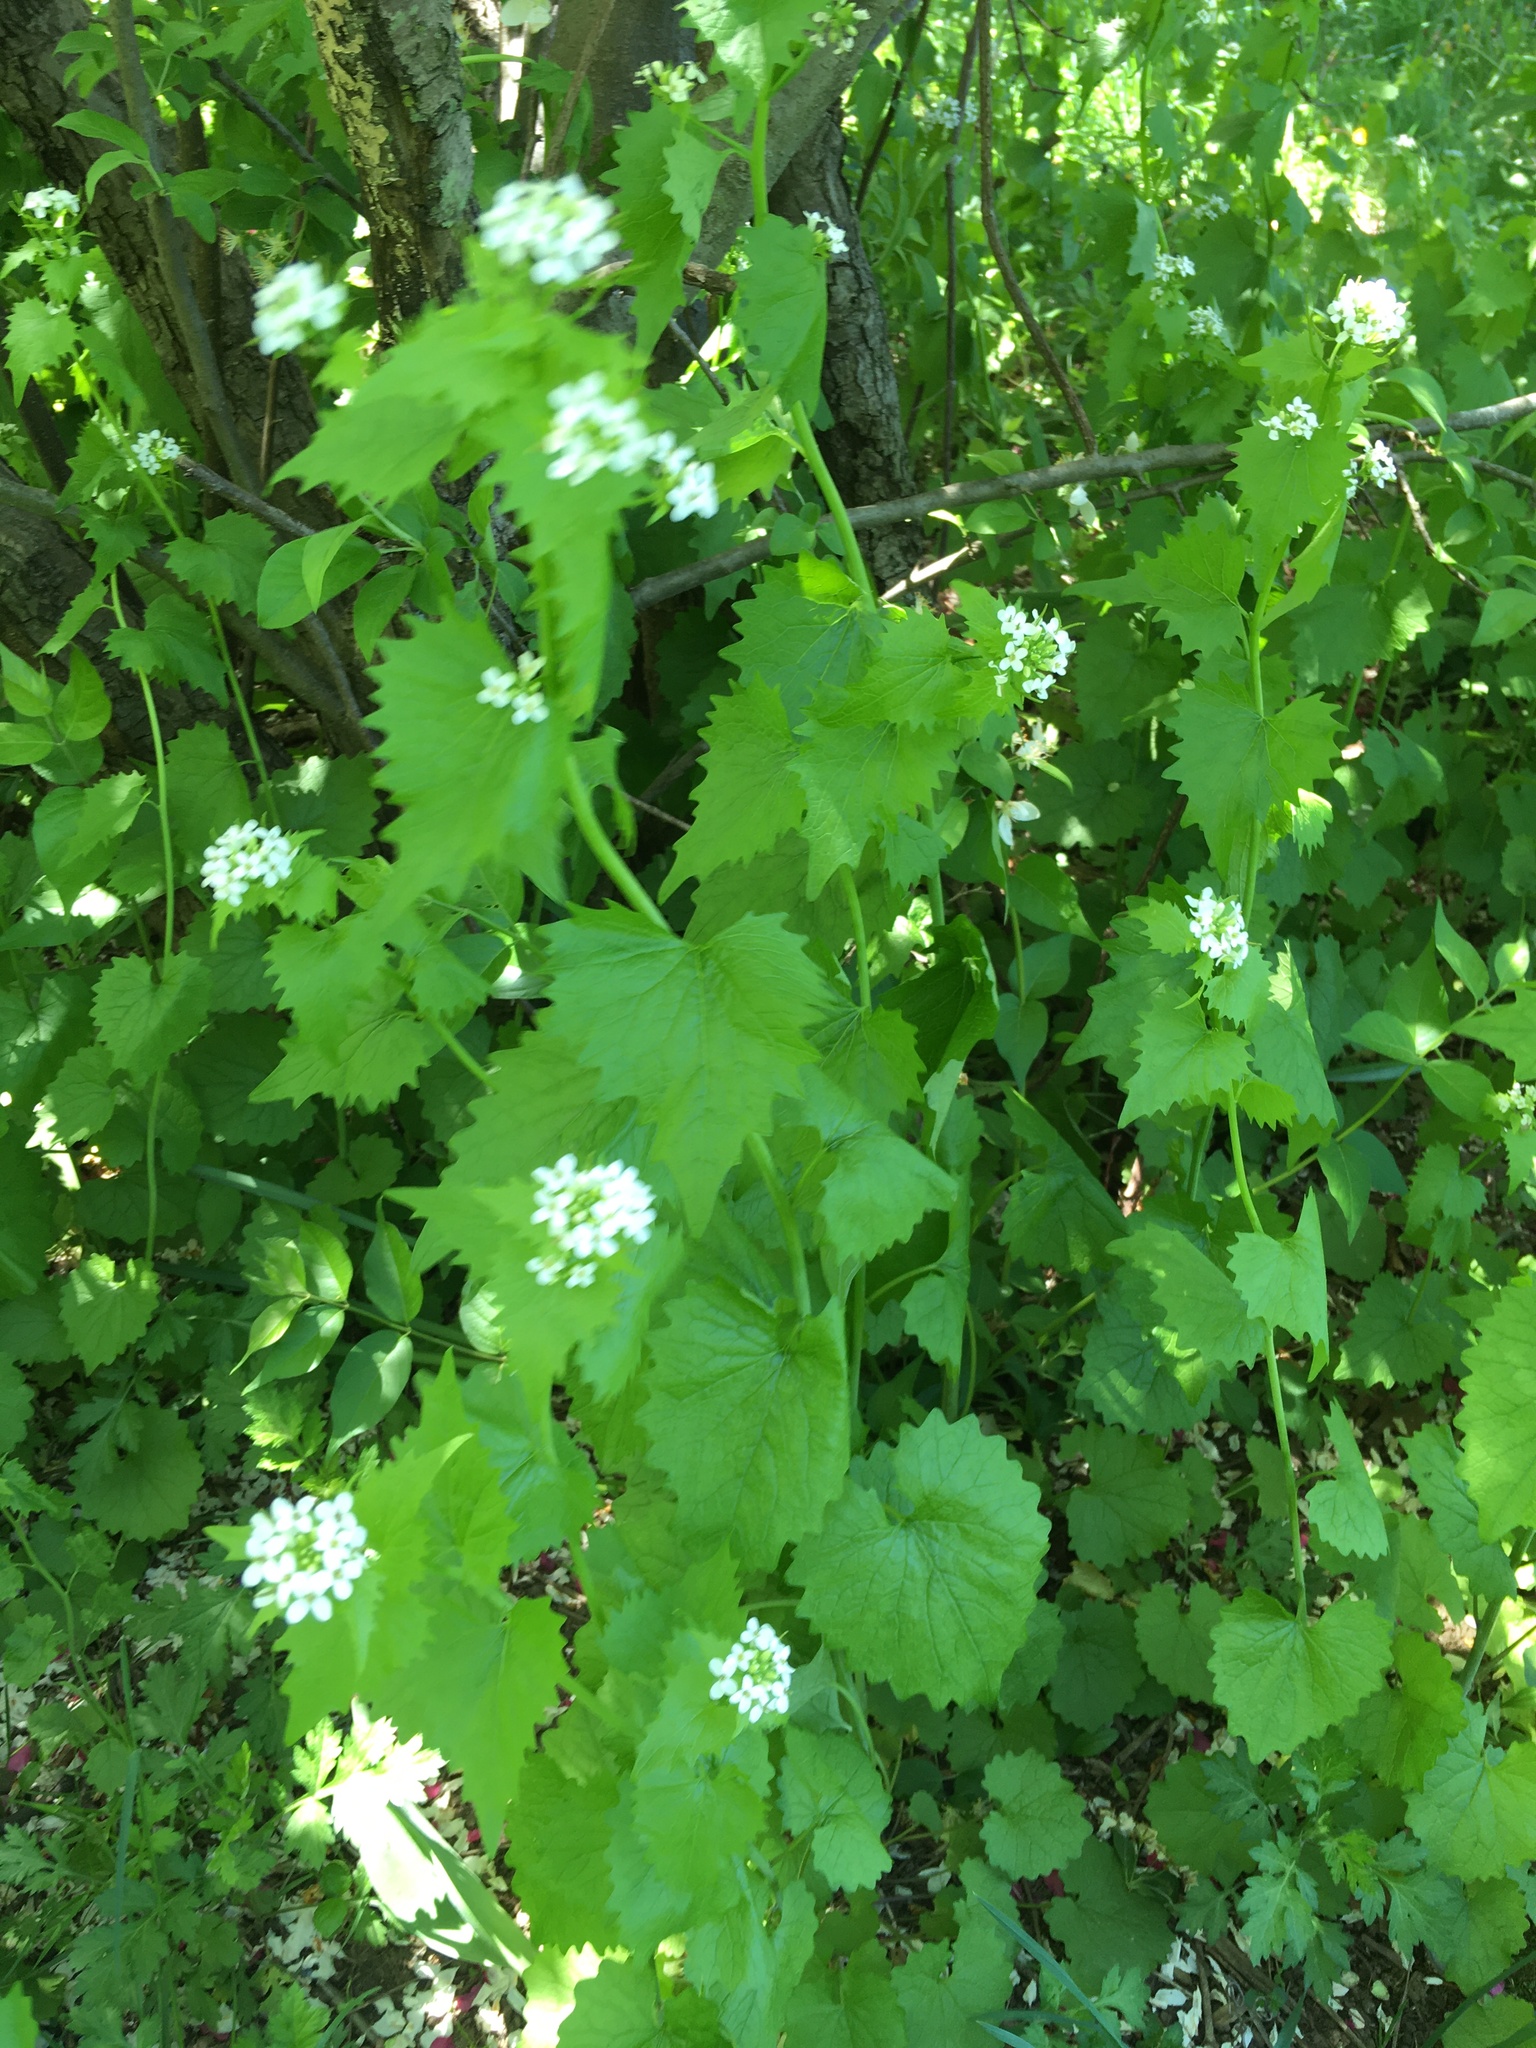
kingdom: Plantae
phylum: Tracheophyta
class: Magnoliopsida
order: Brassicales
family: Brassicaceae
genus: Alliaria
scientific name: Alliaria petiolata
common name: Garlic mustard
